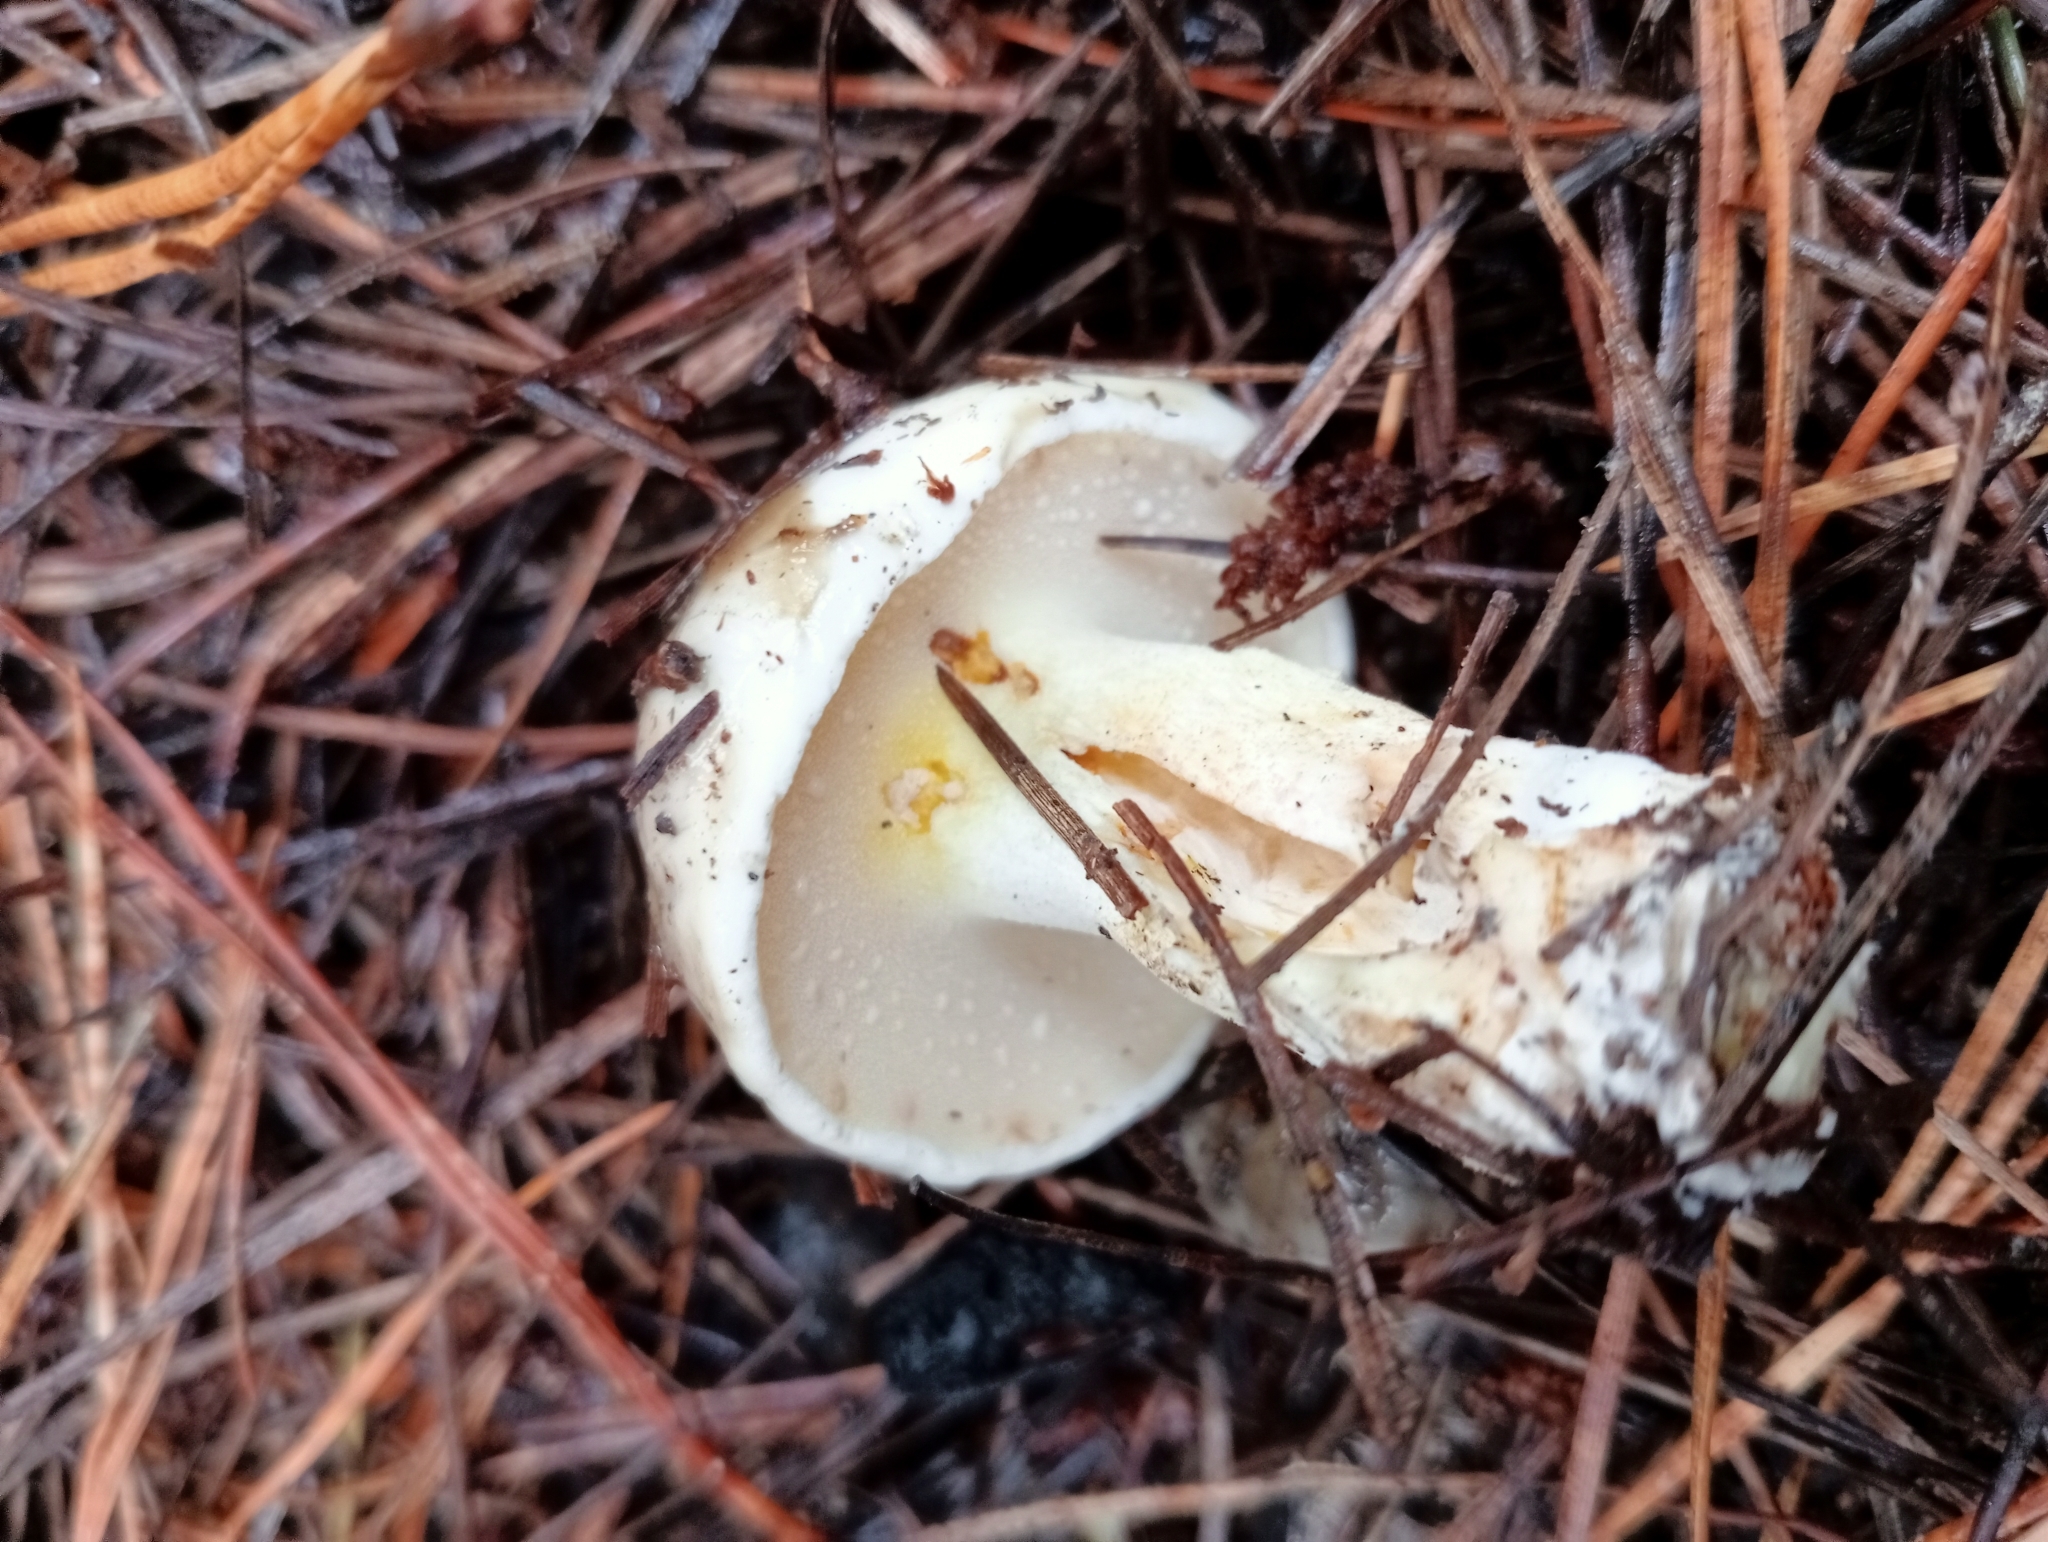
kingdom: Fungi
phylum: Basidiomycota
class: Agaricomycetes
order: Boletales
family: Suillaceae
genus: Suillus
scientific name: Suillus pungens
